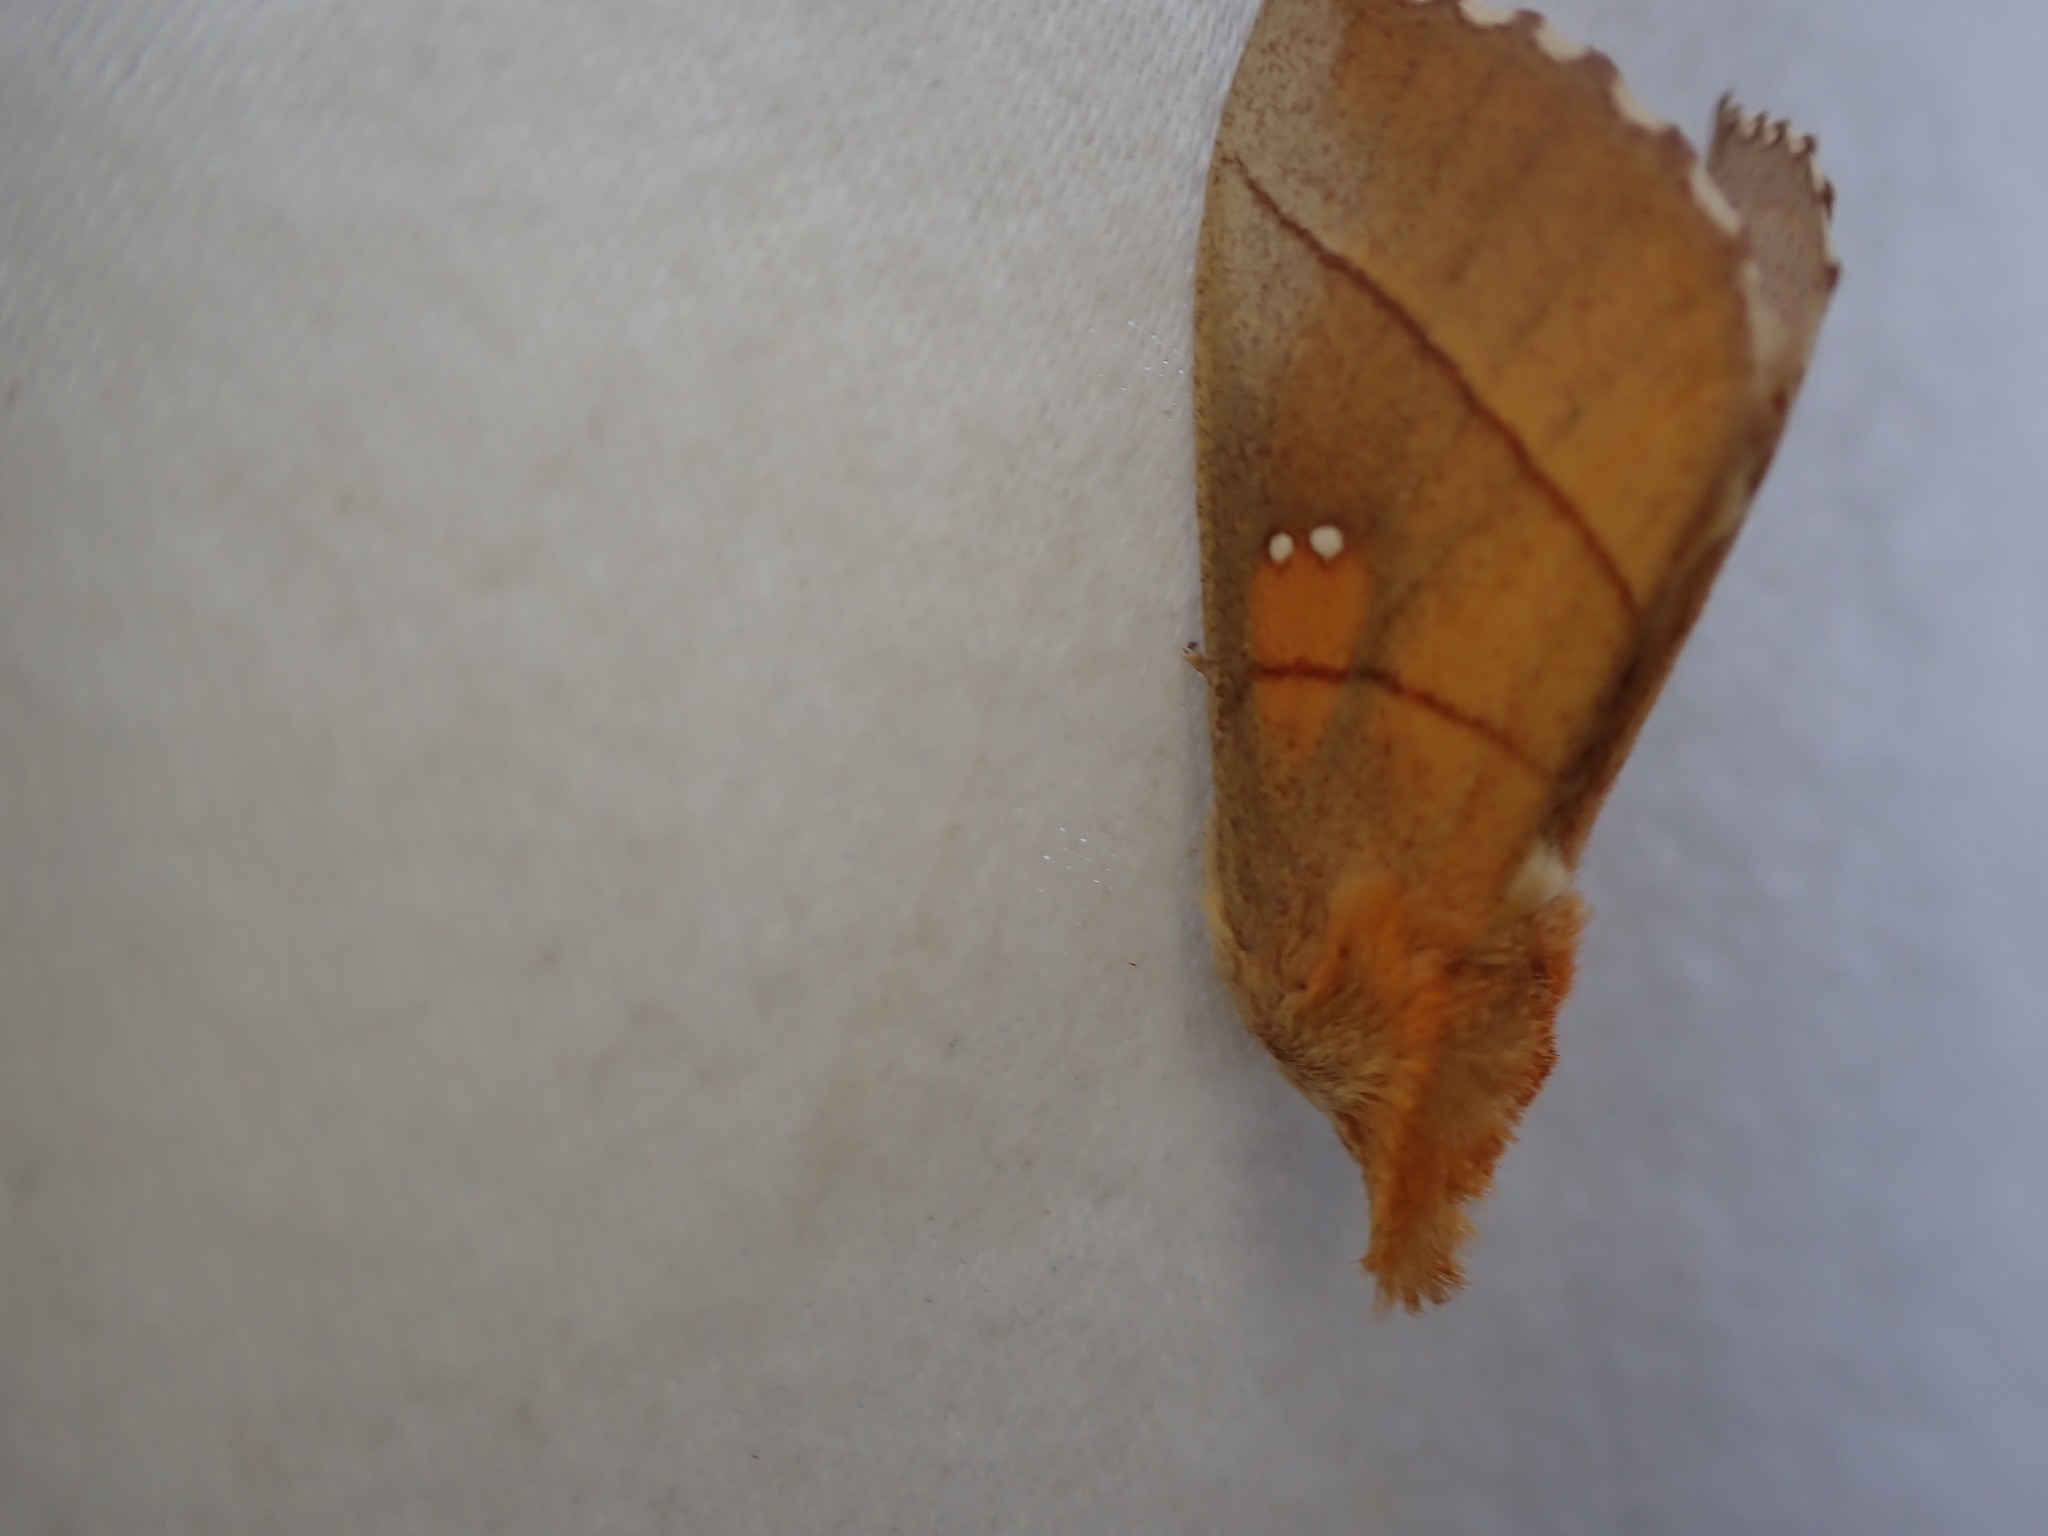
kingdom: Animalia
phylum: Arthropoda
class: Insecta
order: Lepidoptera
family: Notodontidae
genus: Nadata
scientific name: Nadata gibbosa
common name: White-dotted prominent
